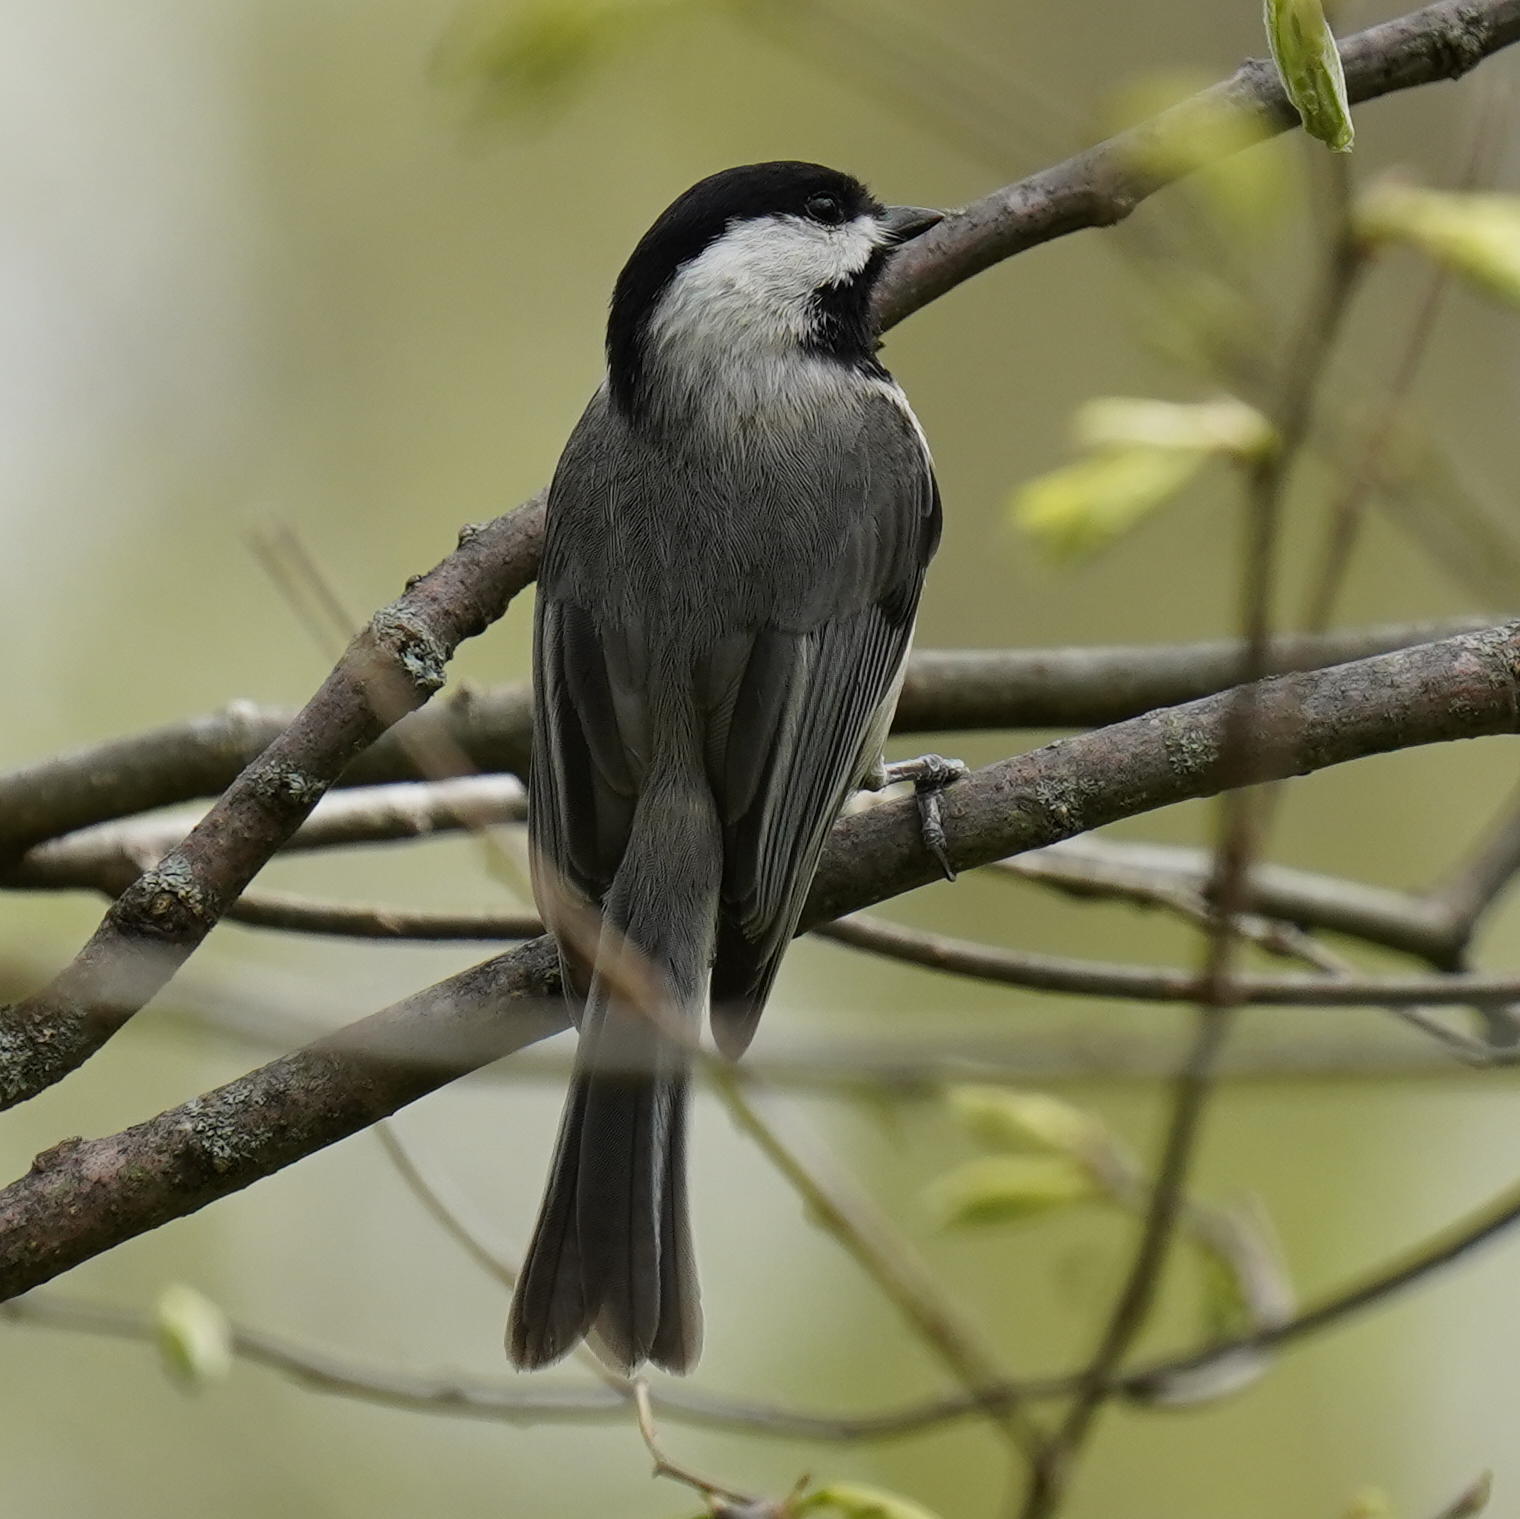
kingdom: Animalia
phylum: Chordata
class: Aves
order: Passeriformes
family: Paridae
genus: Poecile
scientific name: Poecile carolinensis
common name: Carolina chickadee
